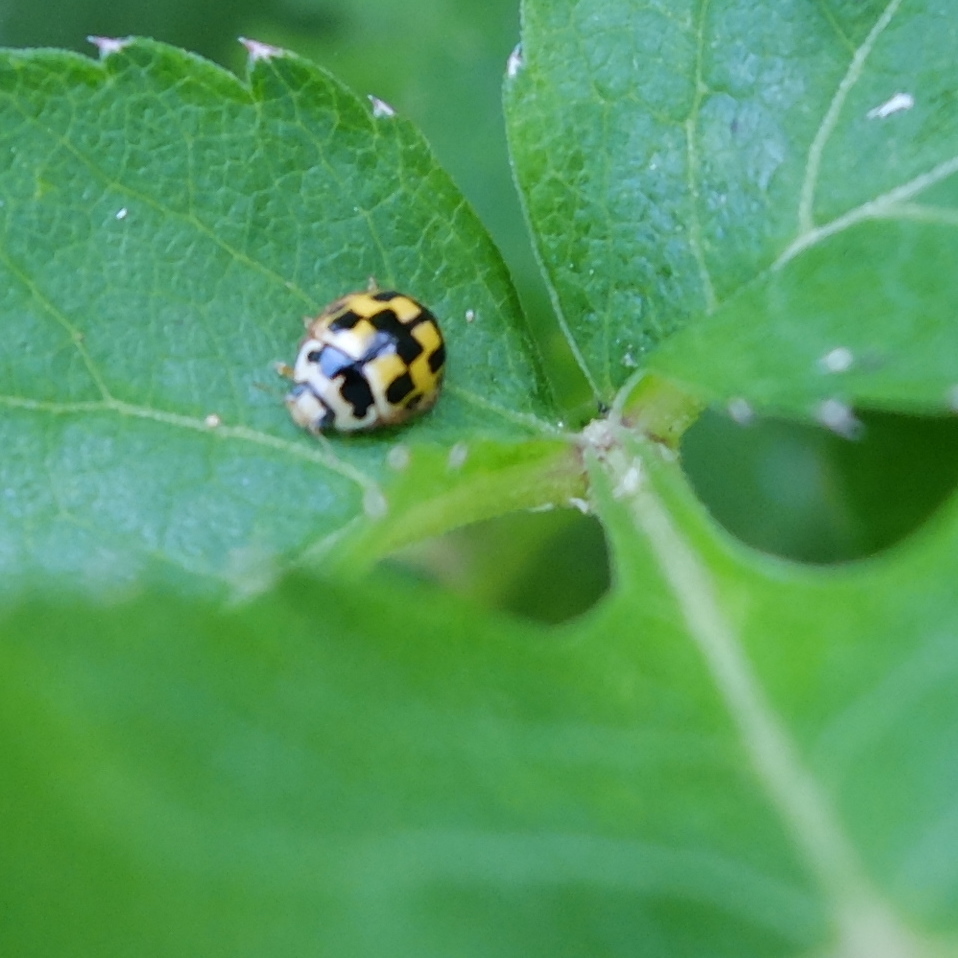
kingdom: Animalia
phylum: Arthropoda
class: Insecta
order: Coleoptera
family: Coccinellidae
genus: Propylaea
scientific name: Propylaea quatuordecimpunctata
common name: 14-spotted ladybird beetle
